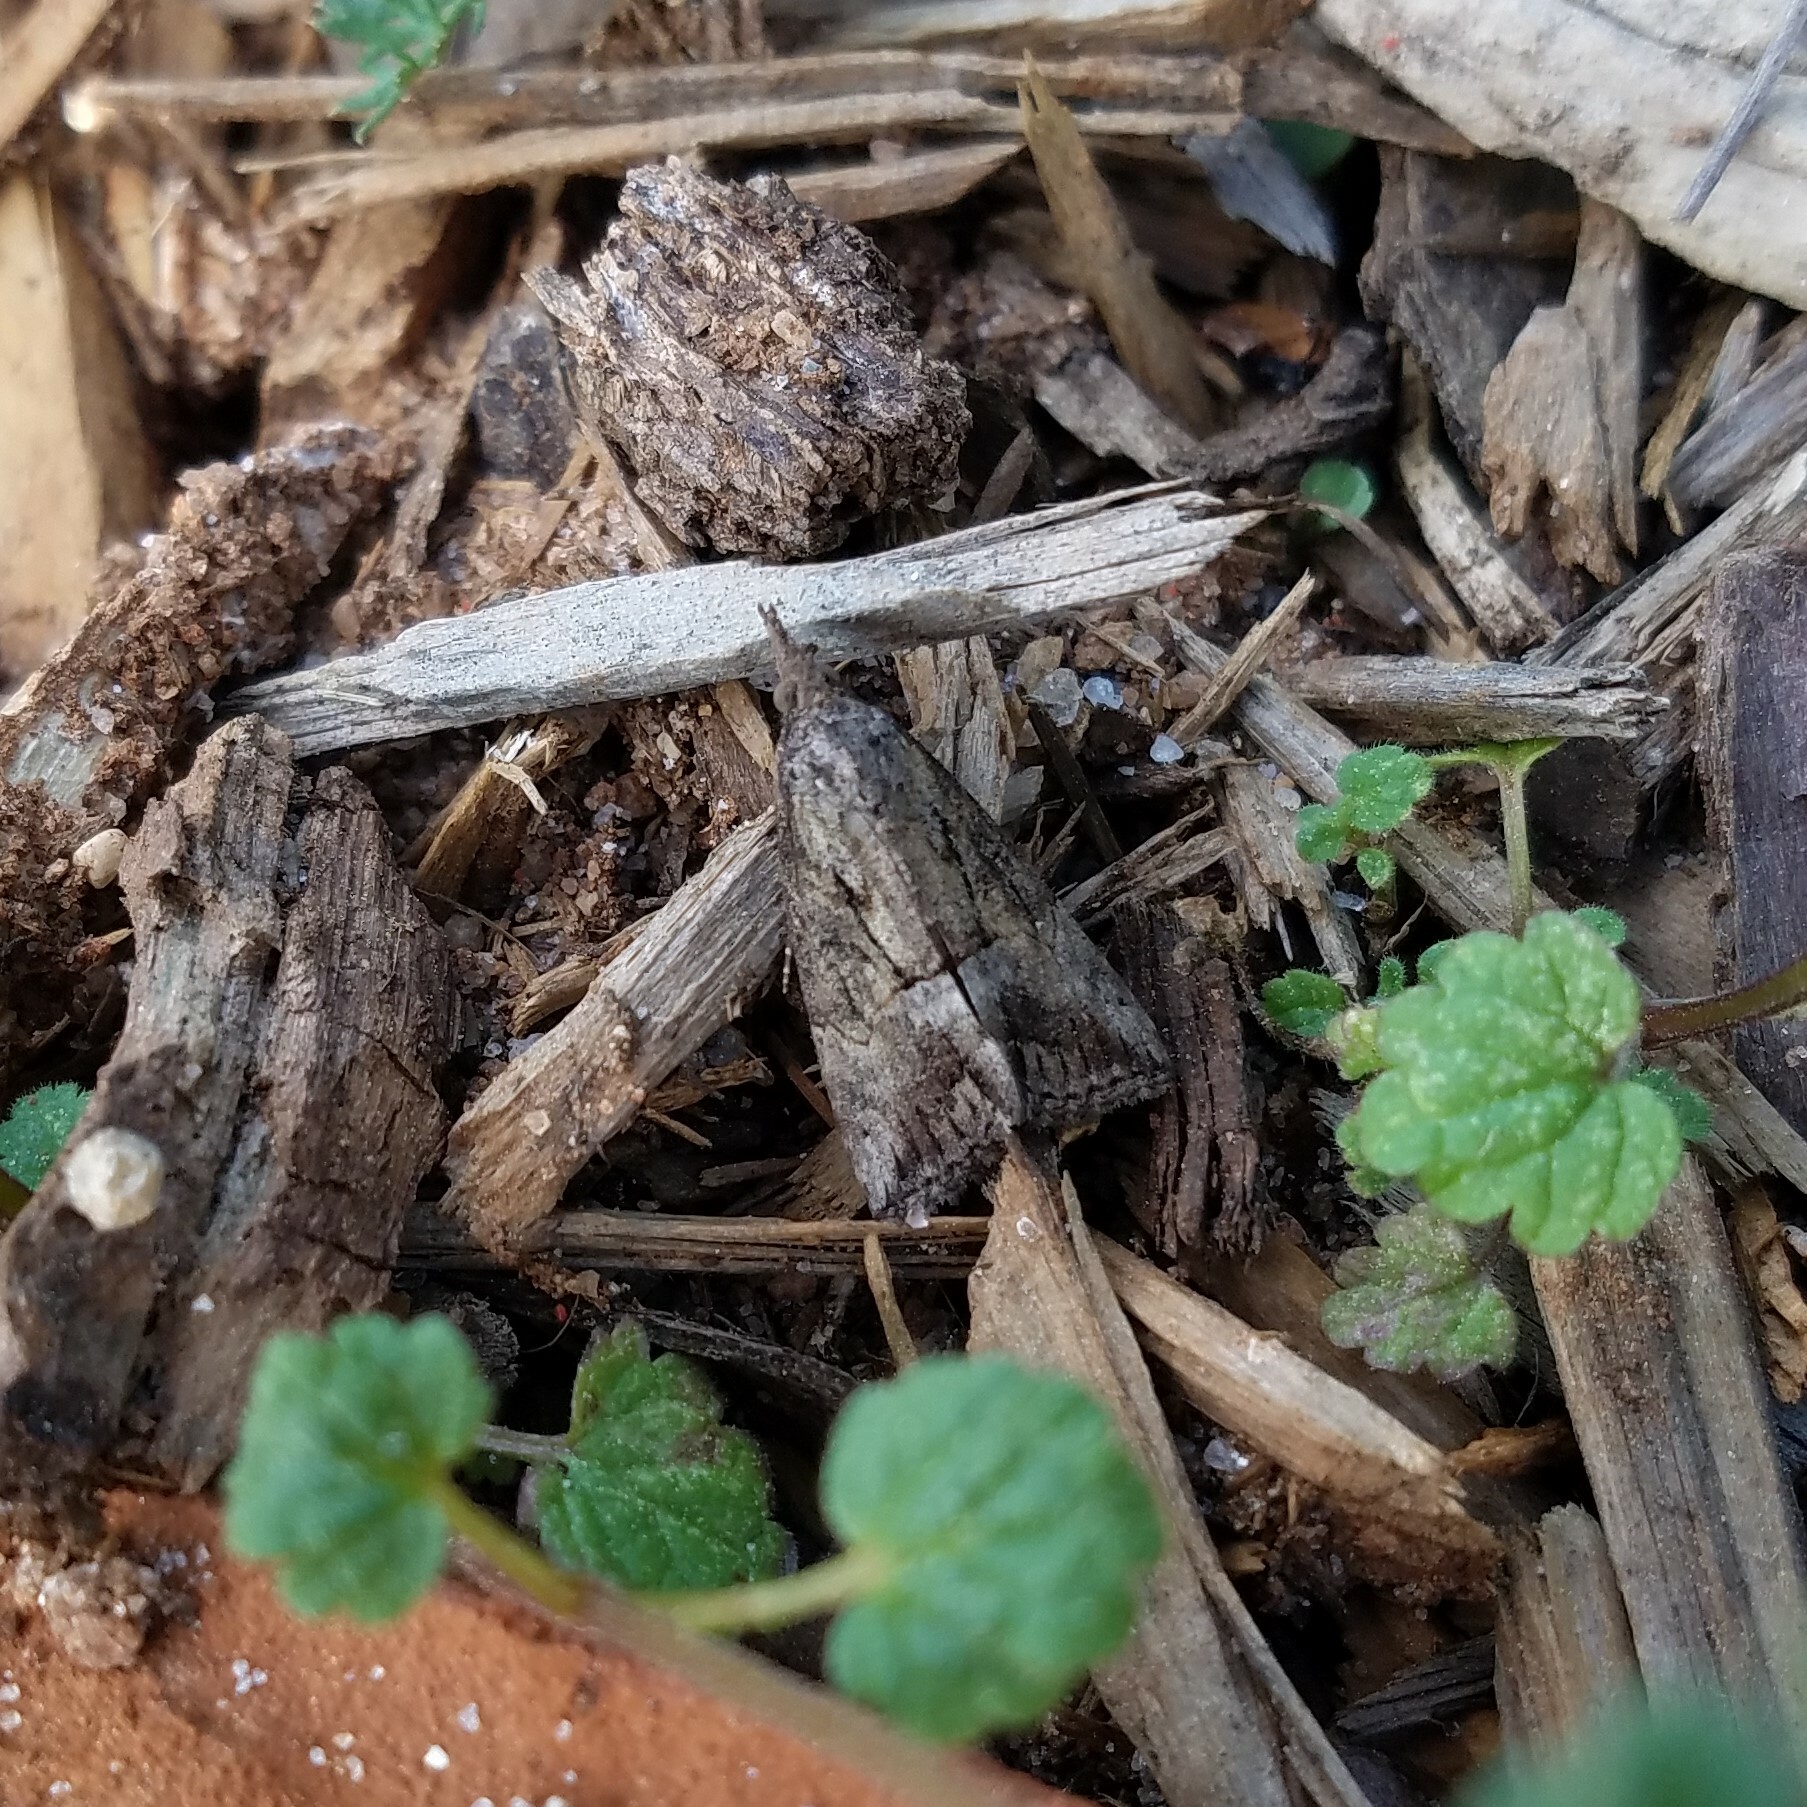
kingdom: Animalia
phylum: Arthropoda
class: Insecta
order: Lepidoptera
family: Erebidae
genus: Hypena
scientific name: Hypena scabra
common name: Green cloverworm
